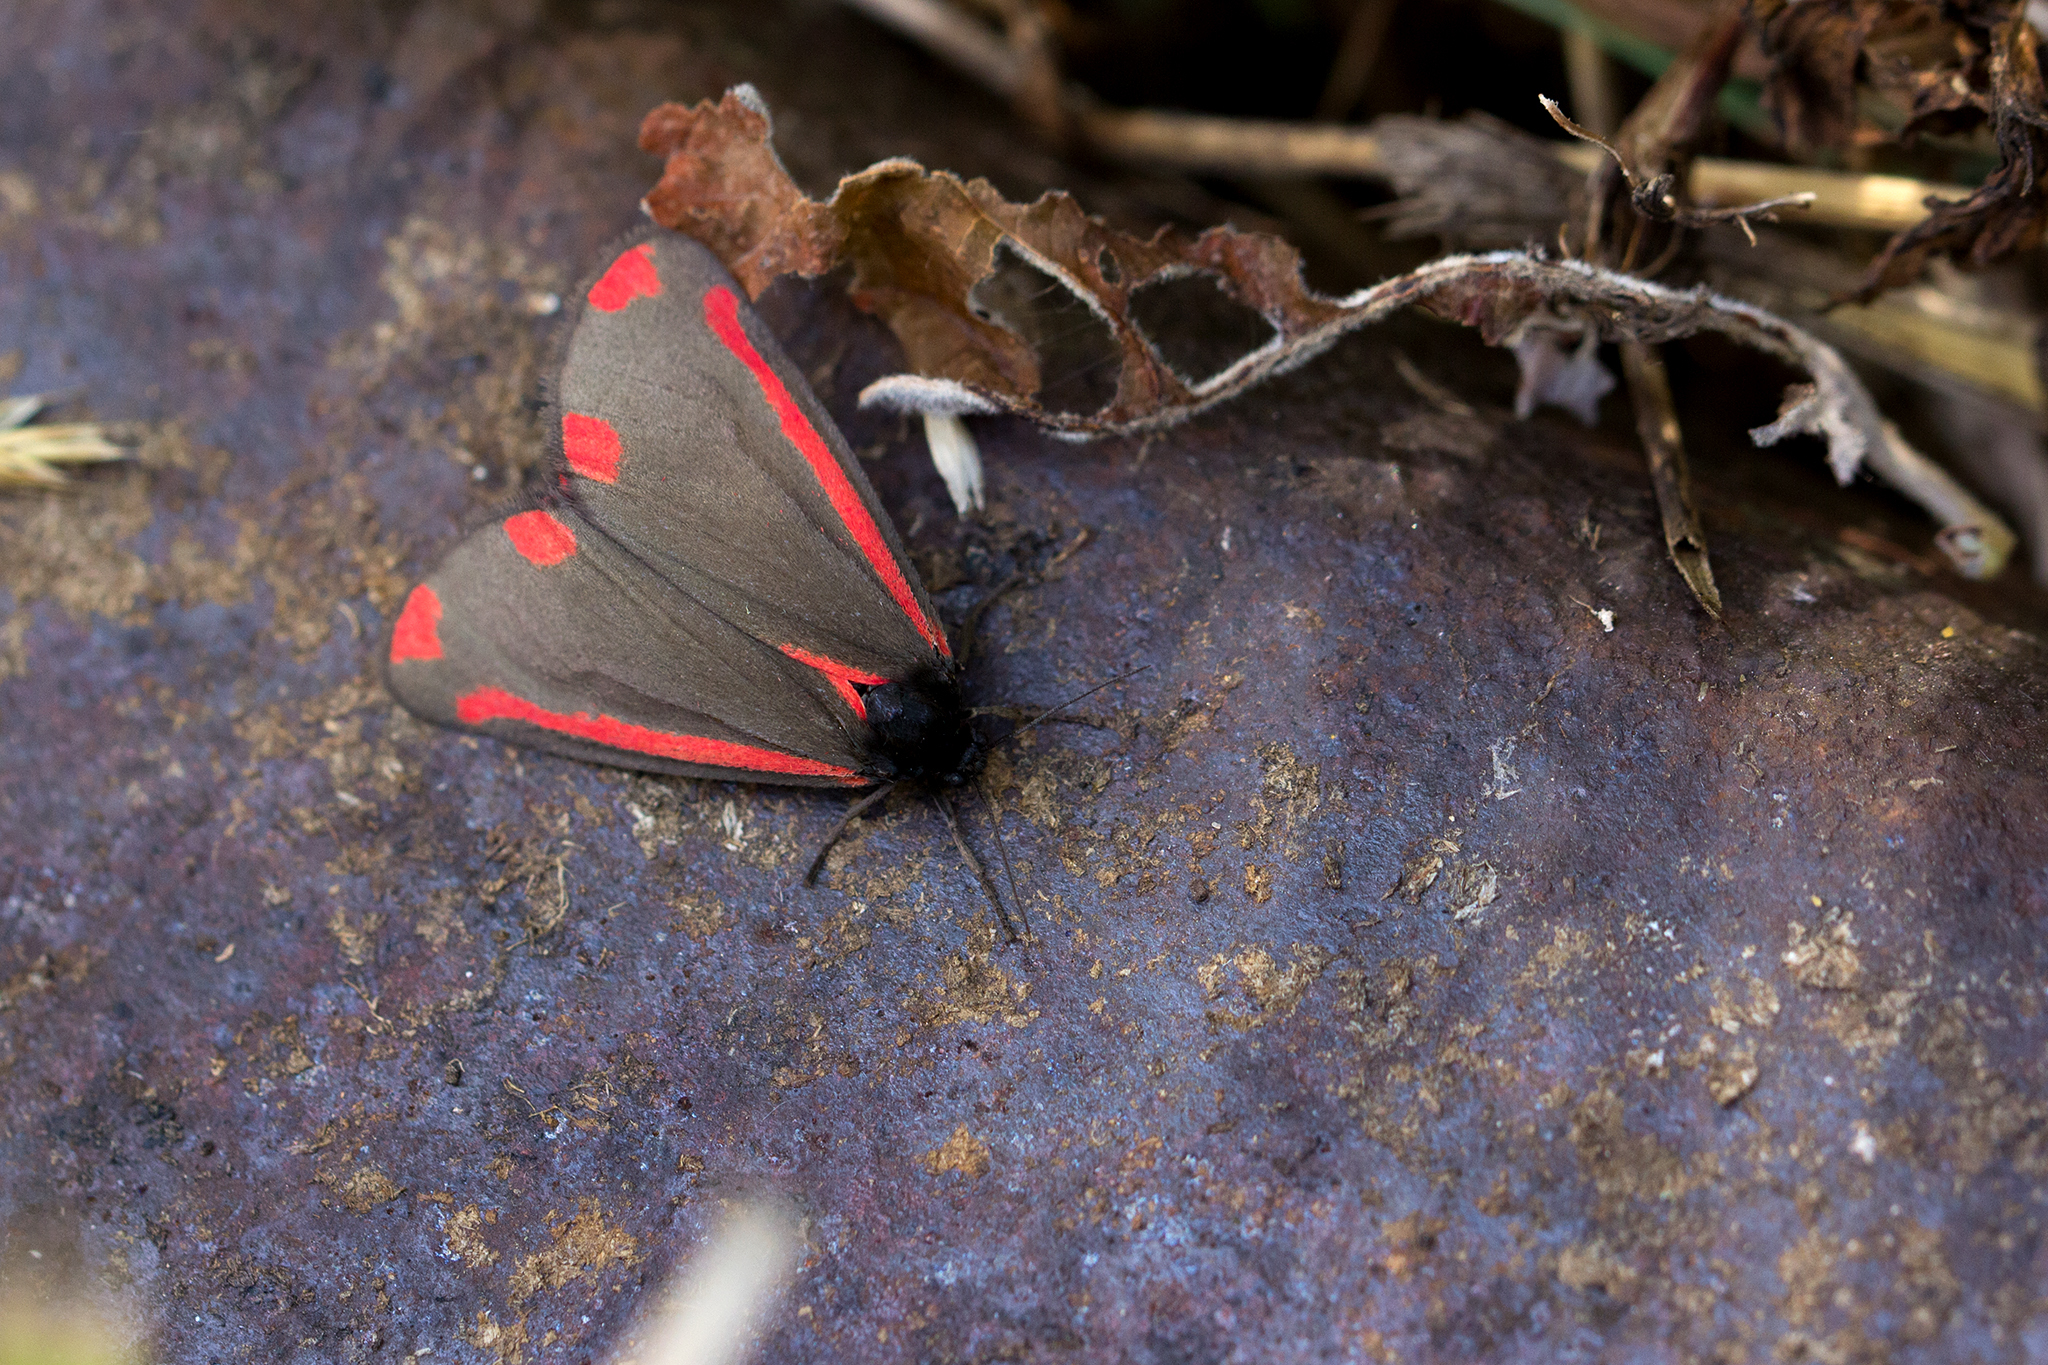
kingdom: Animalia
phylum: Arthropoda
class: Insecta
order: Lepidoptera
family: Erebidae
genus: Tyria
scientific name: Tyria jacobaeae
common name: Cinnabar
